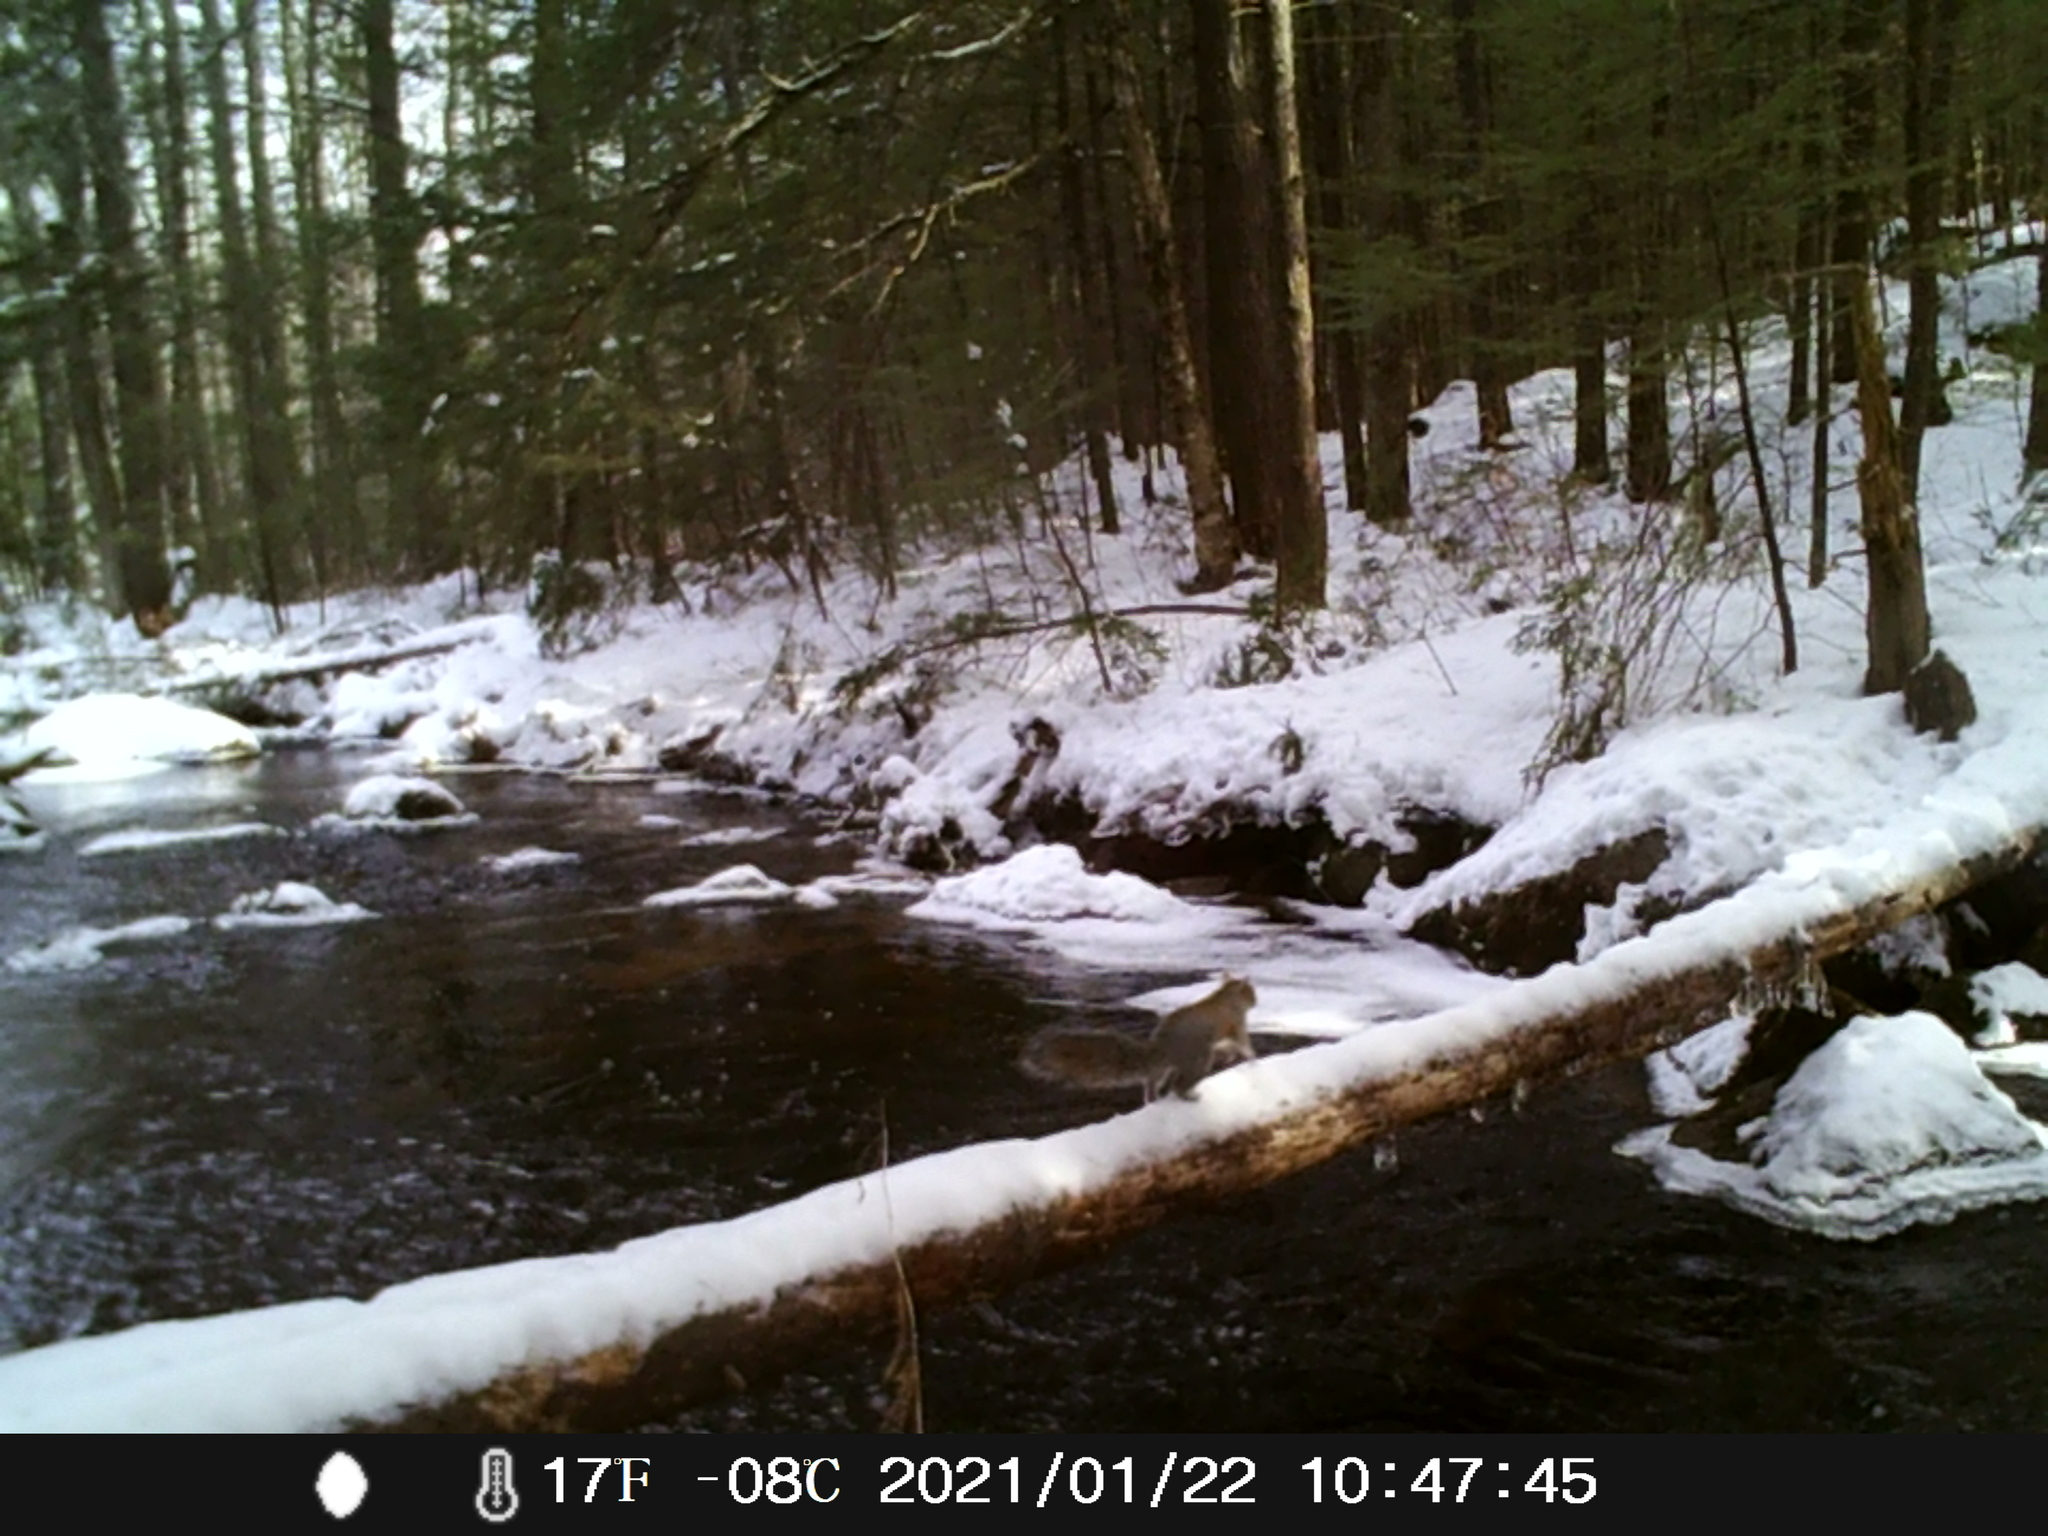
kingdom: Animalia
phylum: Chordata
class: Mammalia
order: Rodentia
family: Sciuridae
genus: Sciurus
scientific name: Sciurus carolinensis
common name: Eastern gray squirrel
